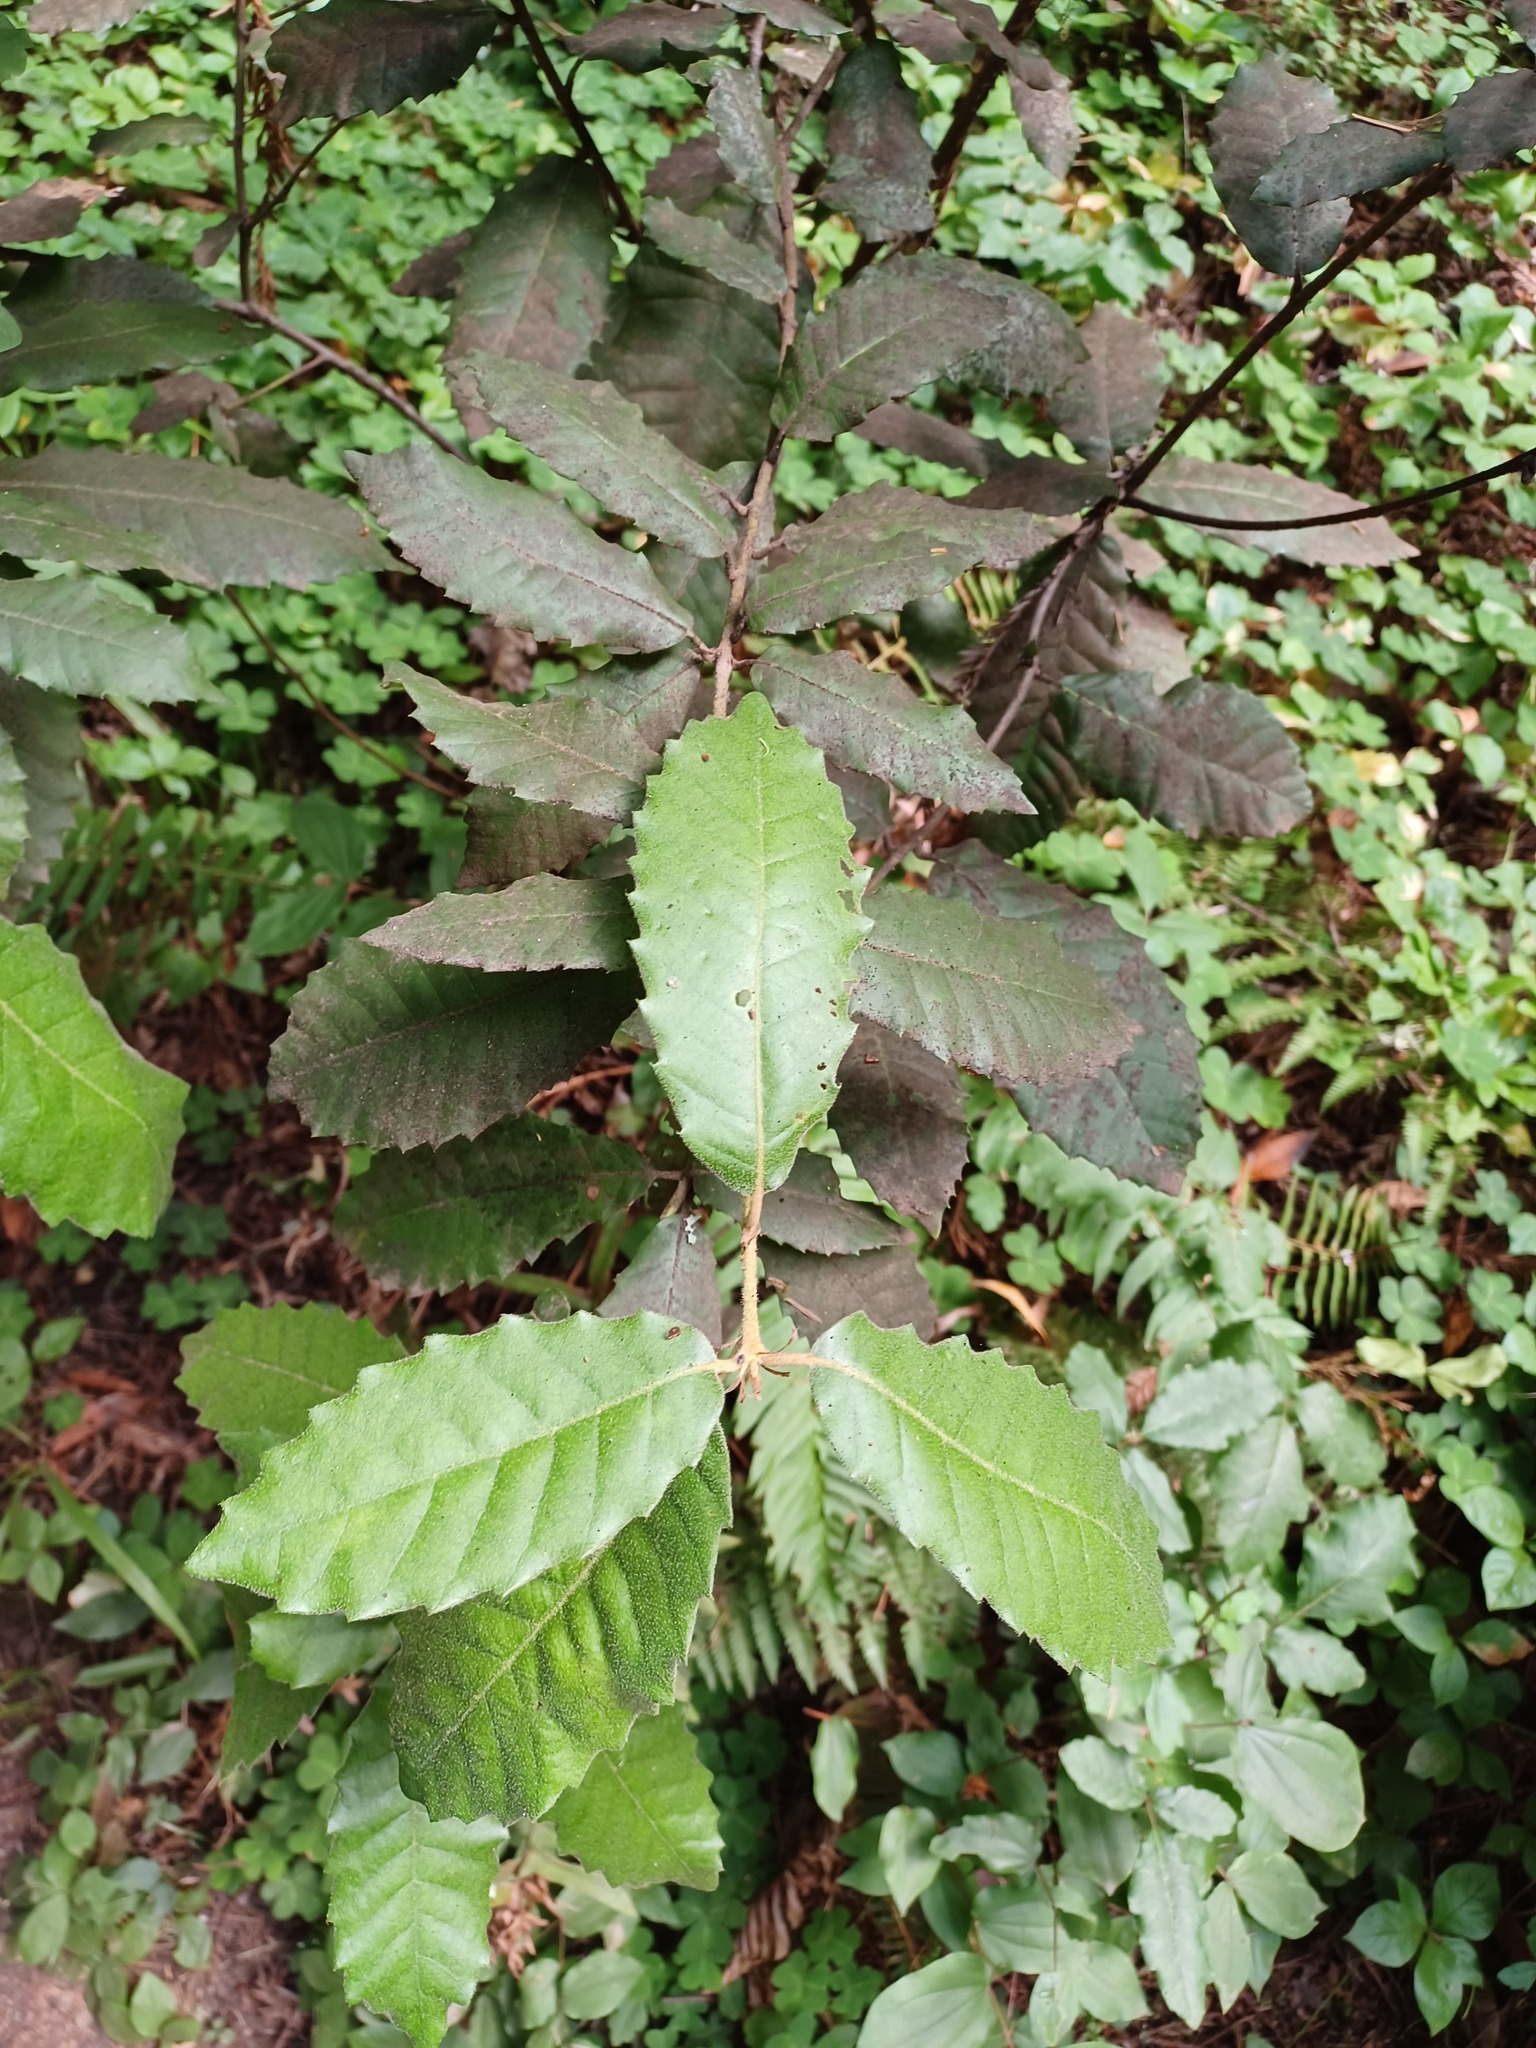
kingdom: Plantae
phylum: Tracheophyta
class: Magnoliopsida
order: Fagales
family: Fagaceae
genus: Notholithocarpus
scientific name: Notholithocarpus densiflorus
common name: Tan bark oak
